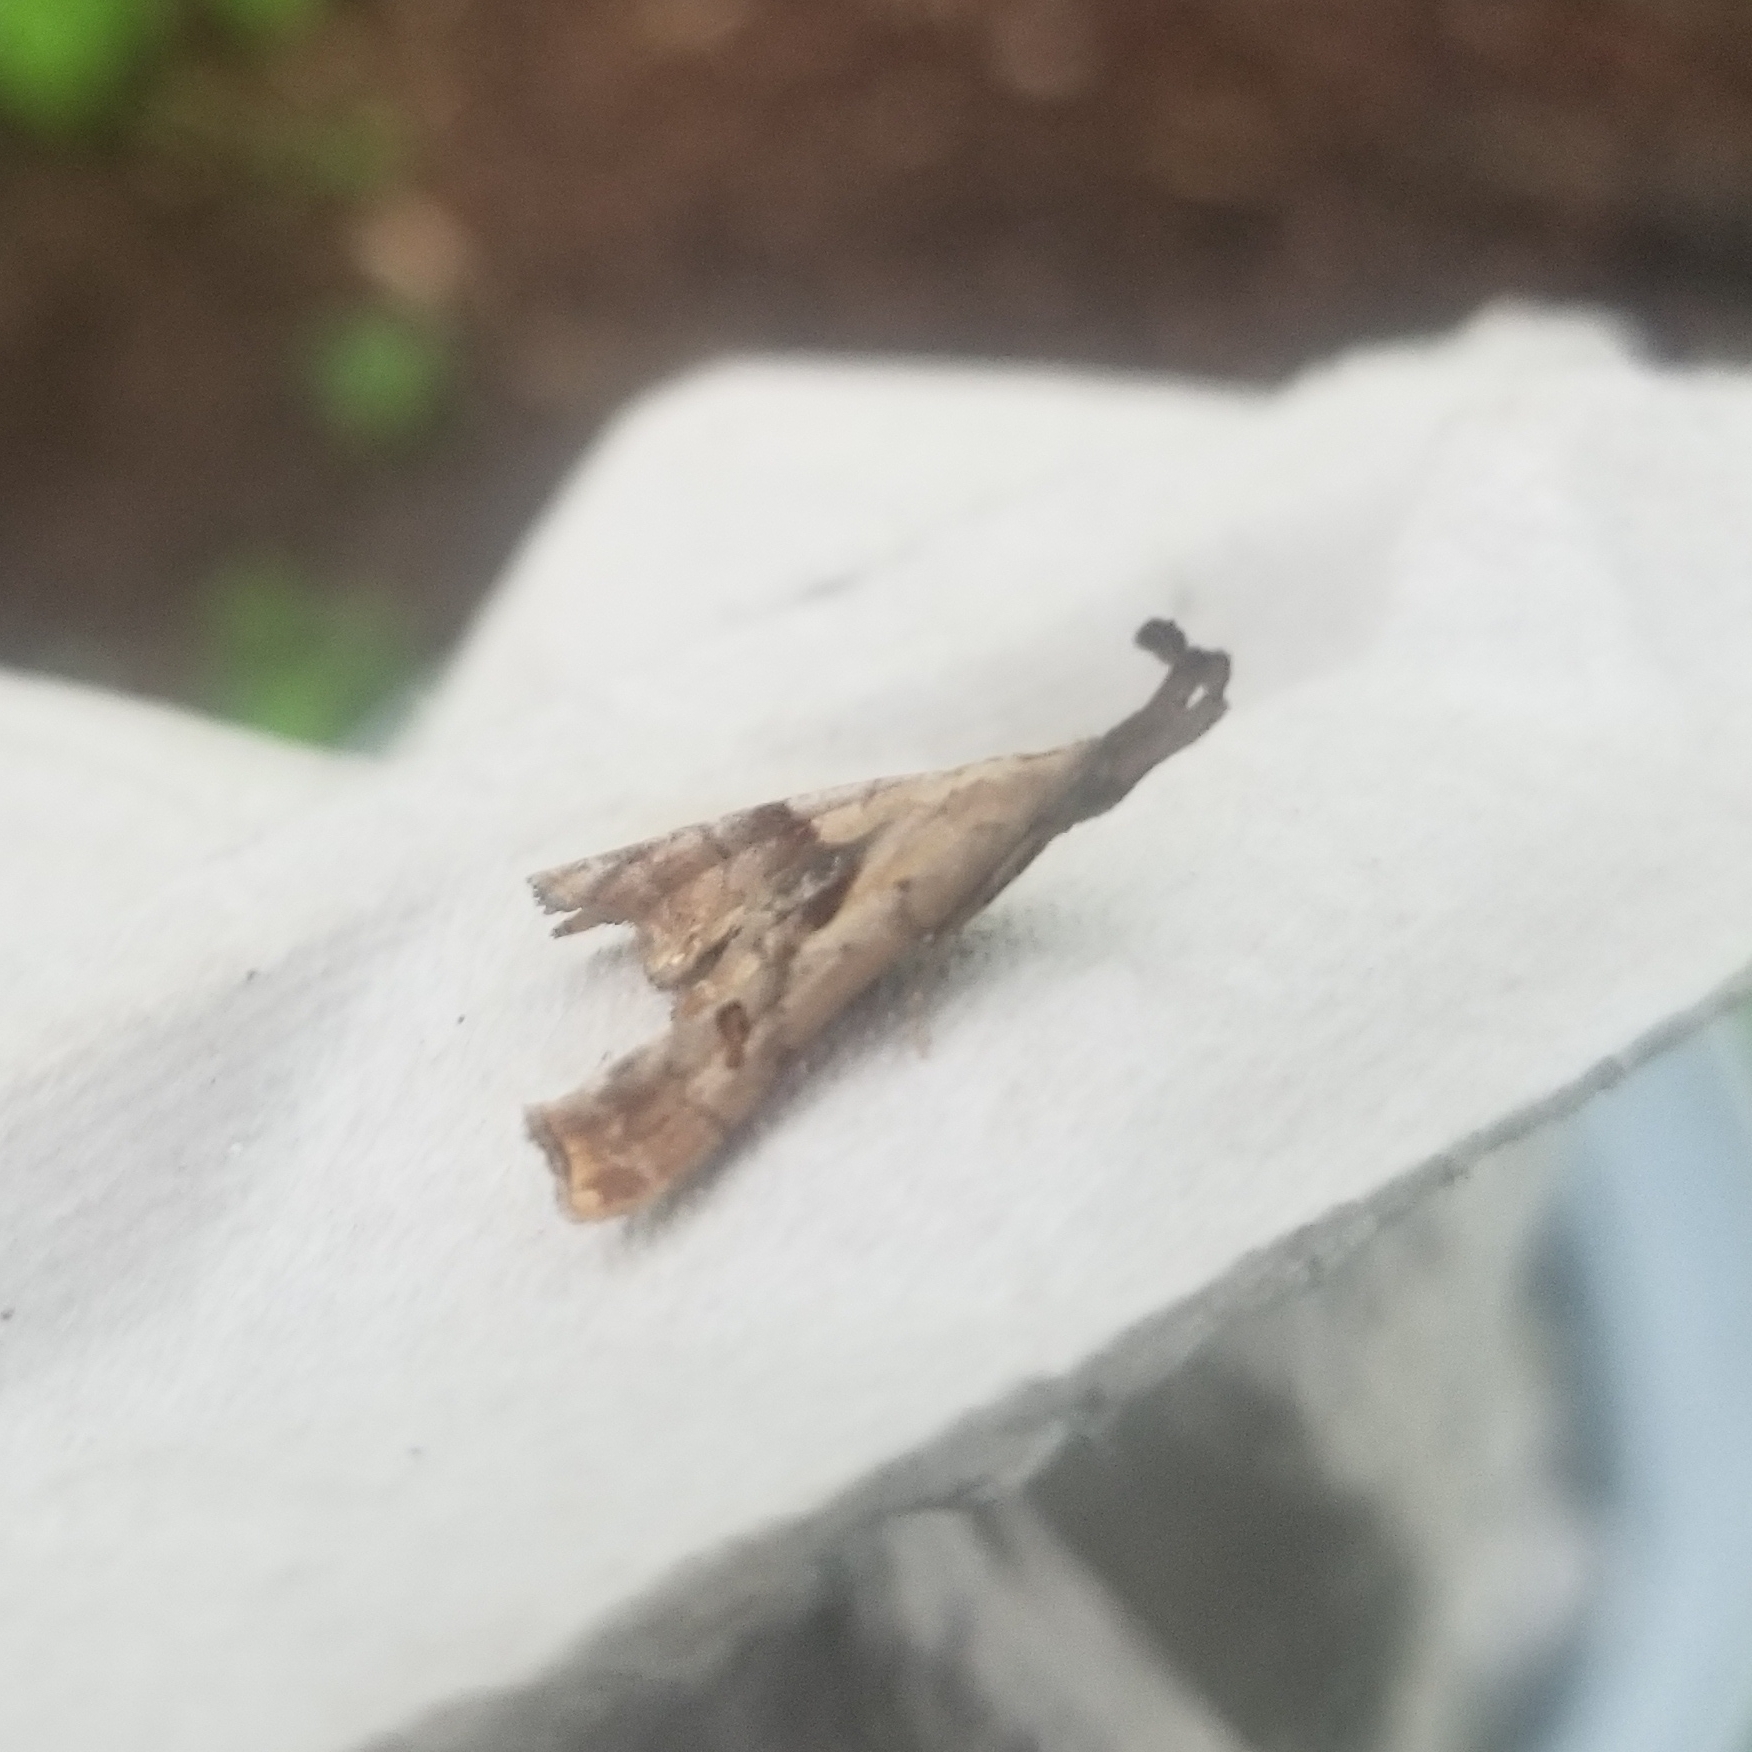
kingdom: Animalia
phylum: Arthropoda
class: Insecta
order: Lepidoptera
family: Erebidae
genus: Palthis
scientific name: Palthis angulalis
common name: Dark-spotted palthis moth
